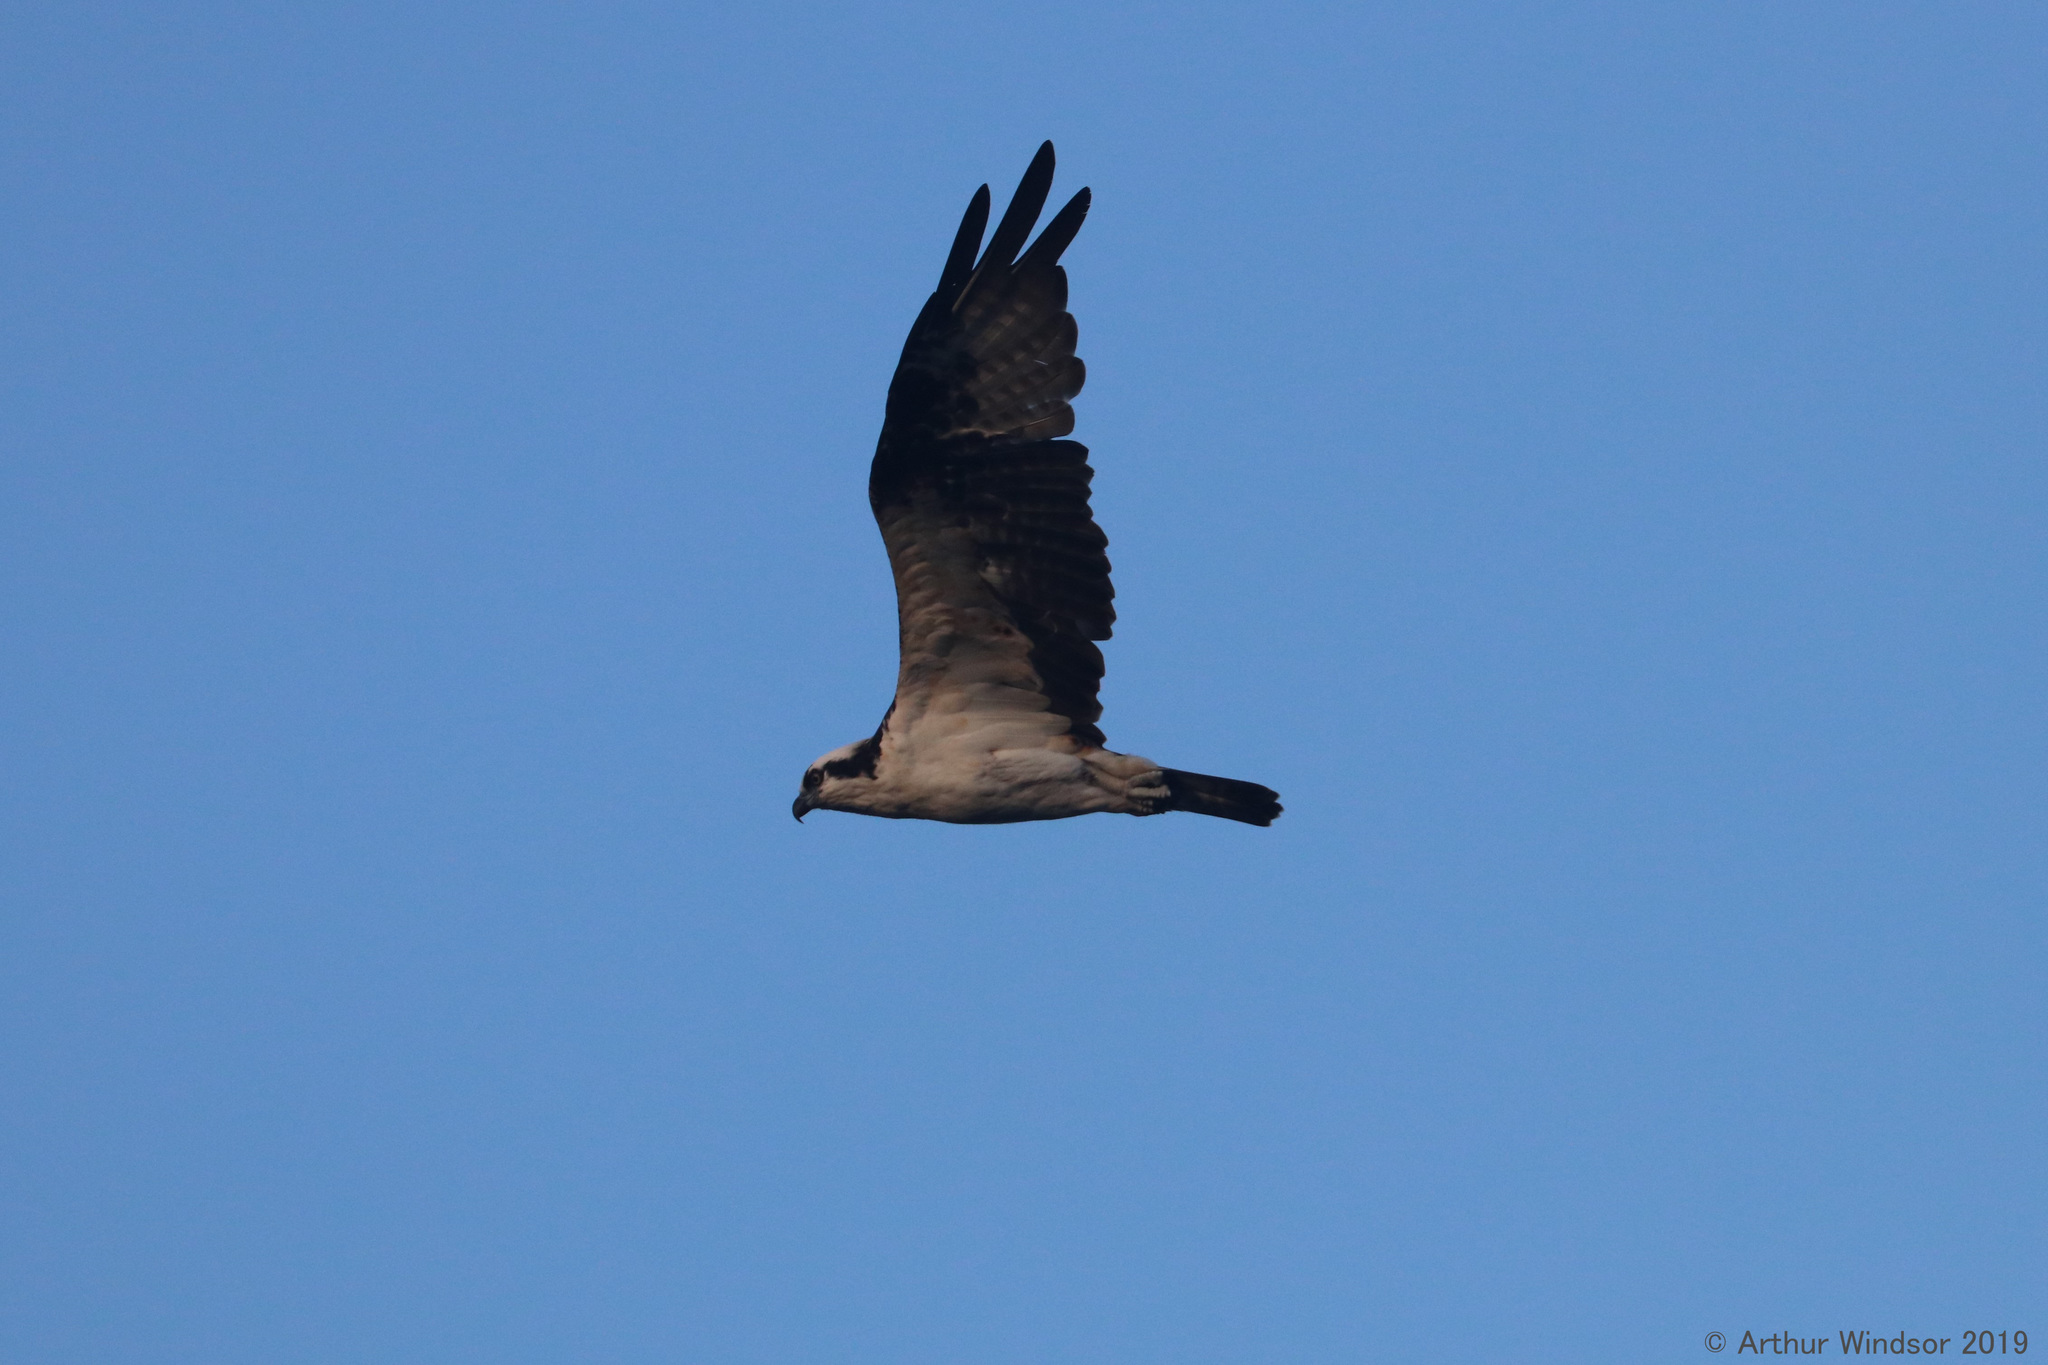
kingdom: Animalia
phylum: Chordata
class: Aves
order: Accipitriformes
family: Pandionidae
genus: Pandion
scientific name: Pandion haliaetus
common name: Osprey
